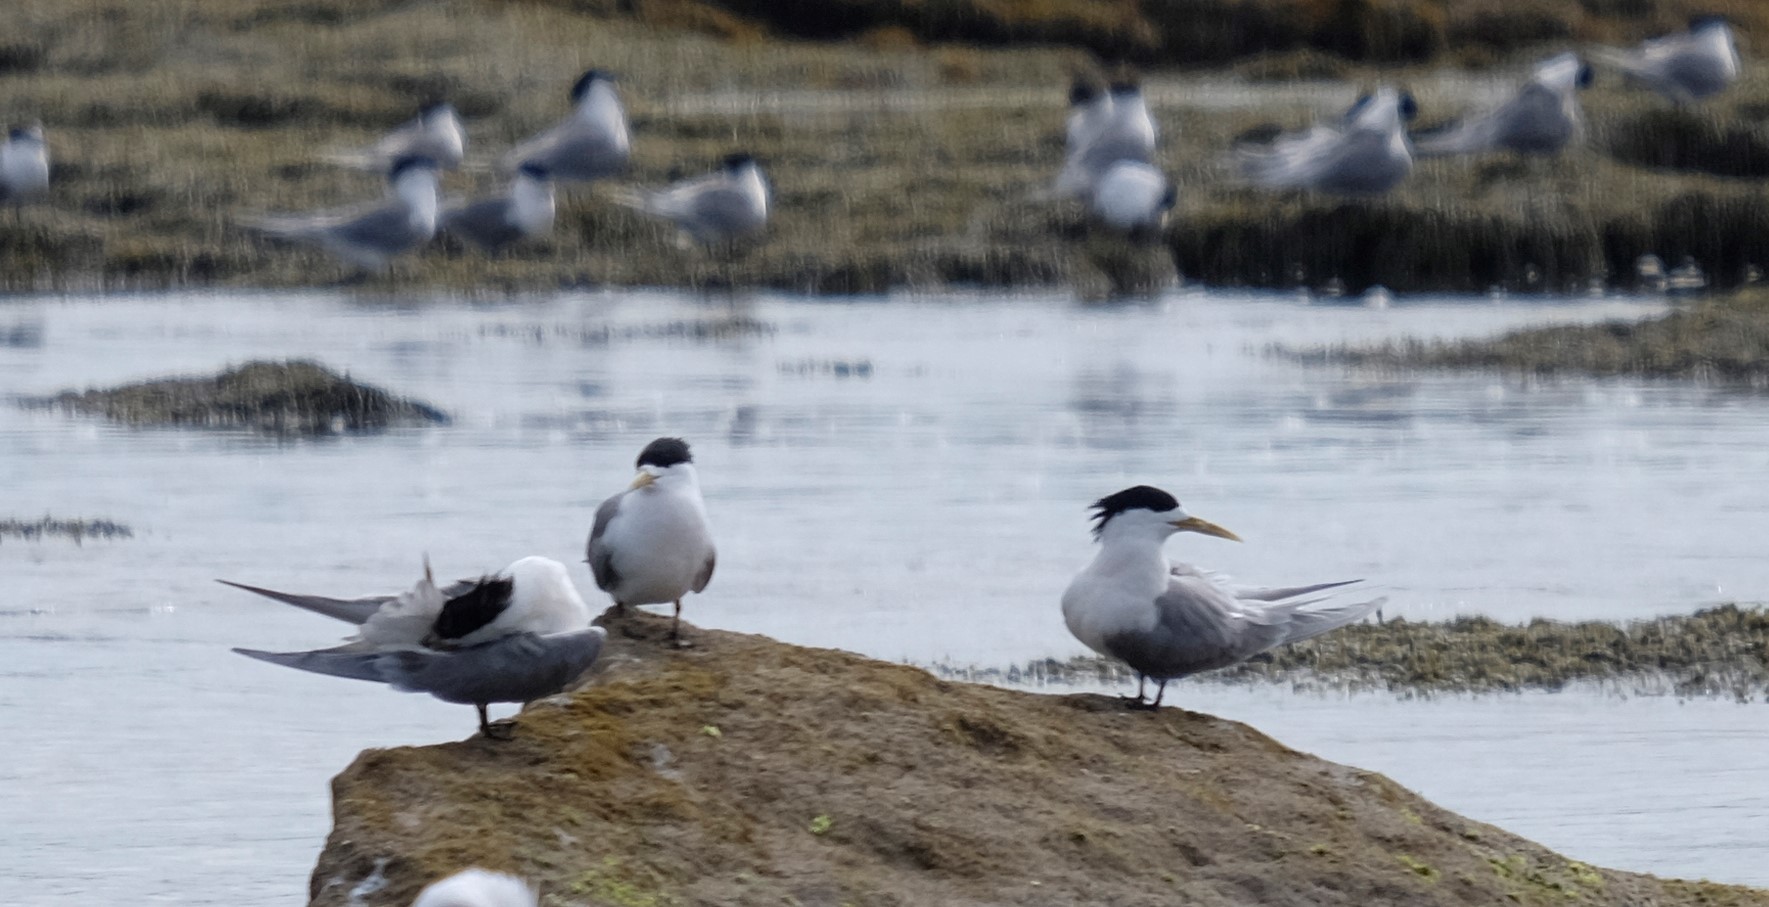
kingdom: Animalia
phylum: Chordata
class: Aves
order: Charadriiformes
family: Laridae
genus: Thalasseus
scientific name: Thalasseus bergii
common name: Greater crested tern
